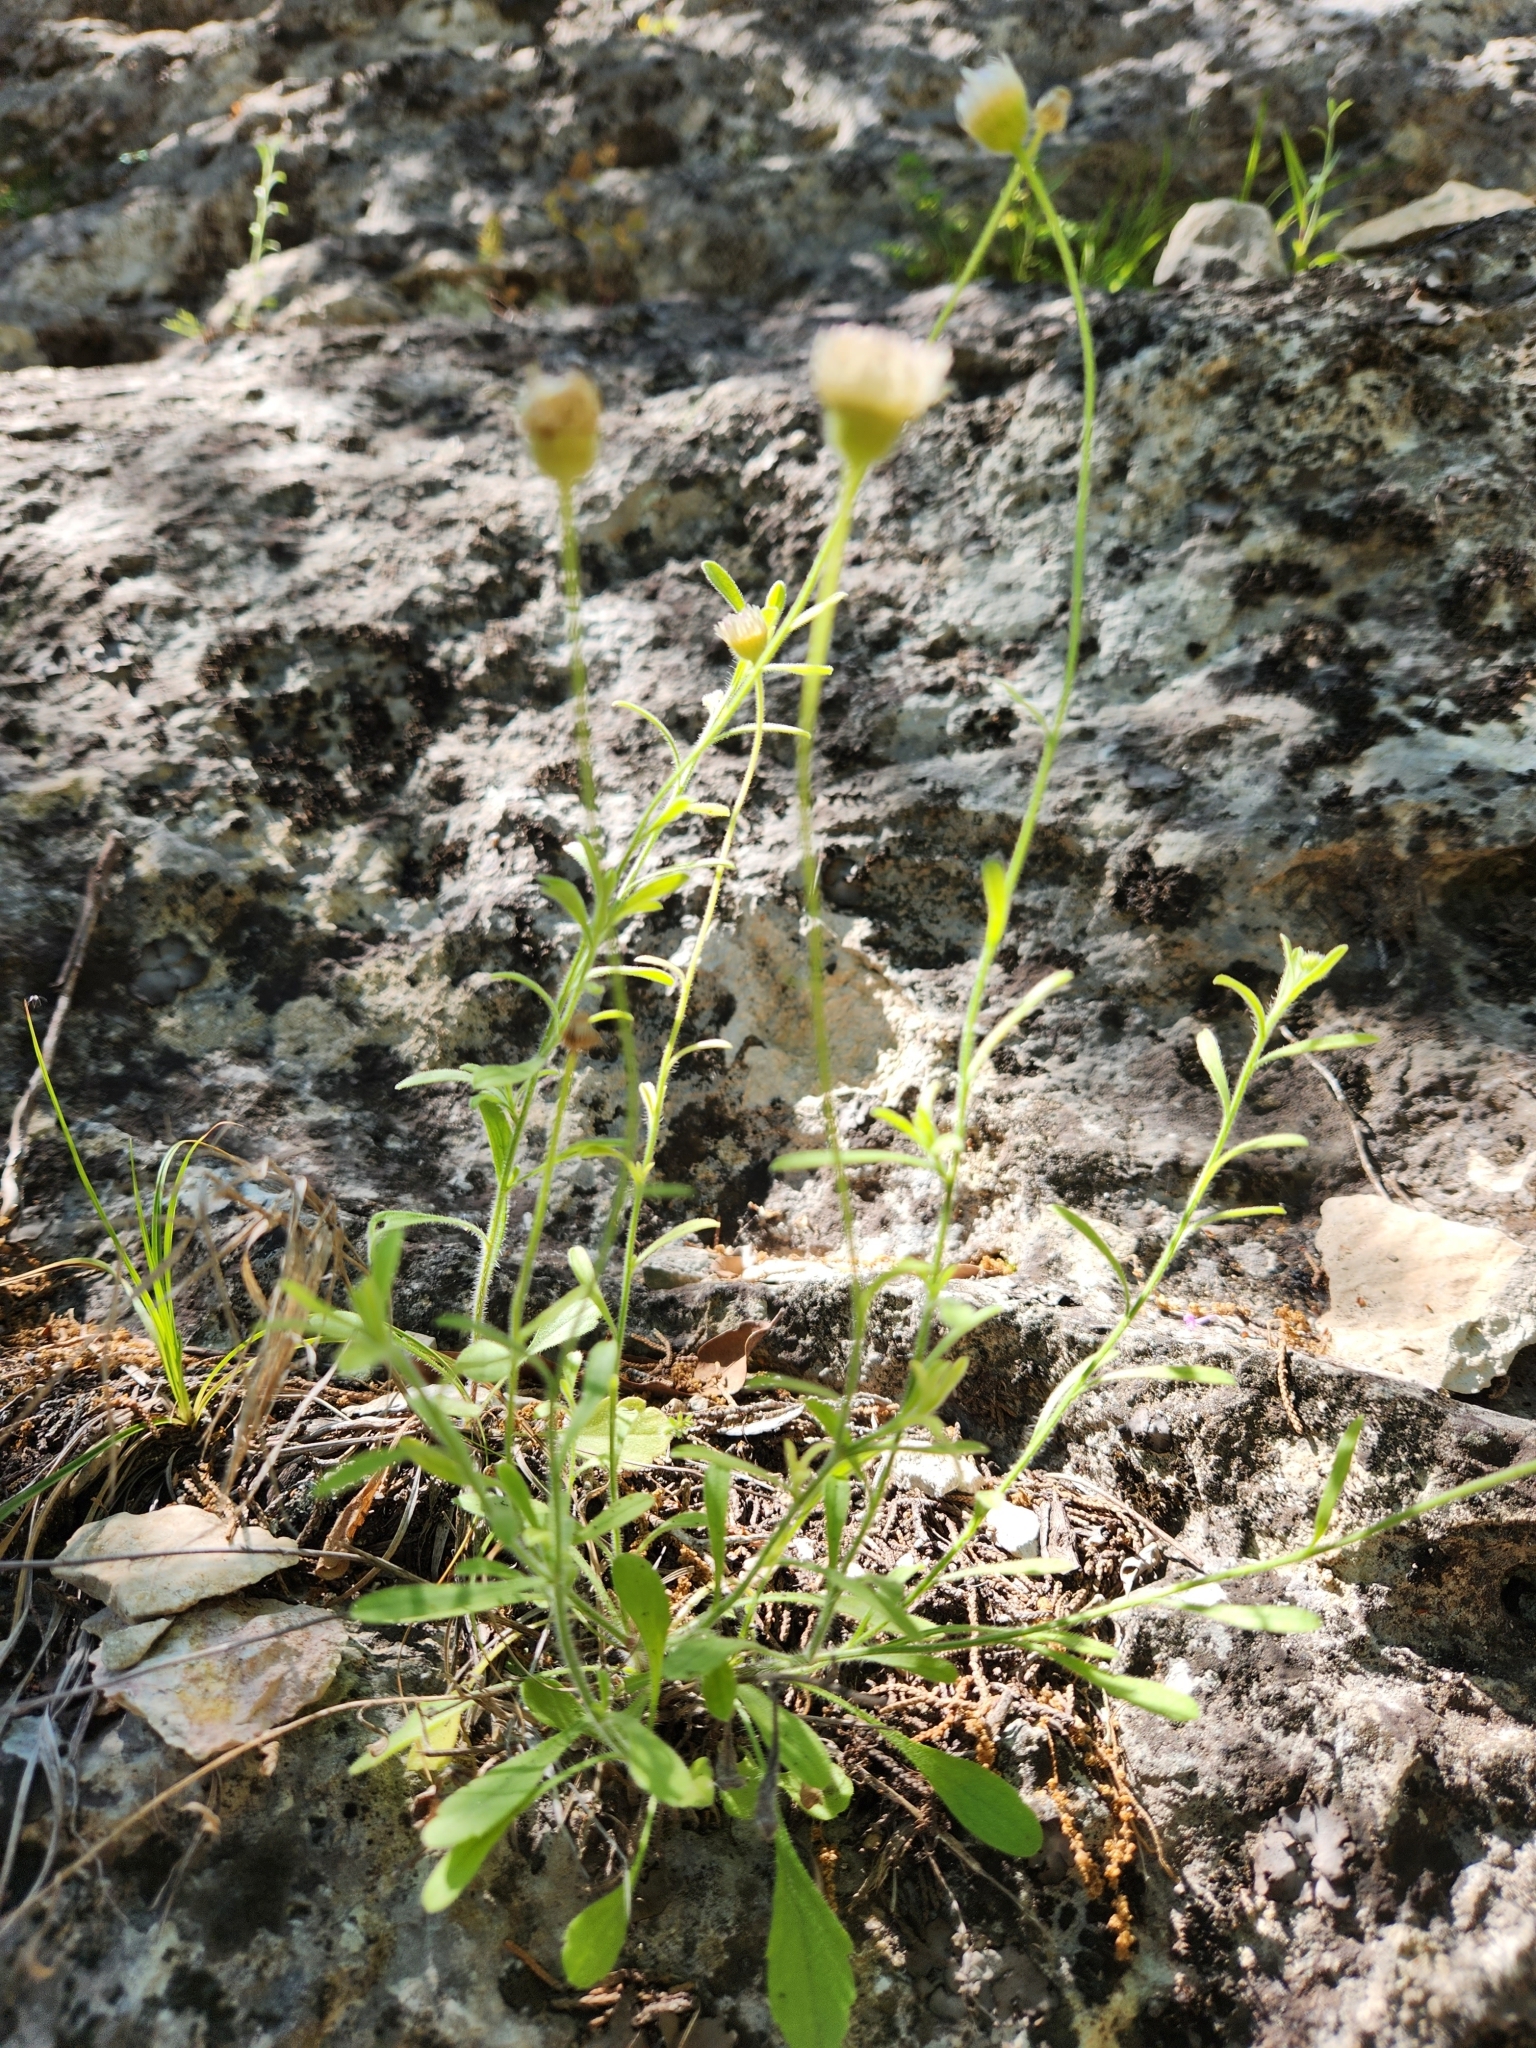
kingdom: Plantae
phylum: Tracheophyta
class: Magnoliopsida
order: Asterales
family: Asteraceae
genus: Erigeron
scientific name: Erigeron modestus
